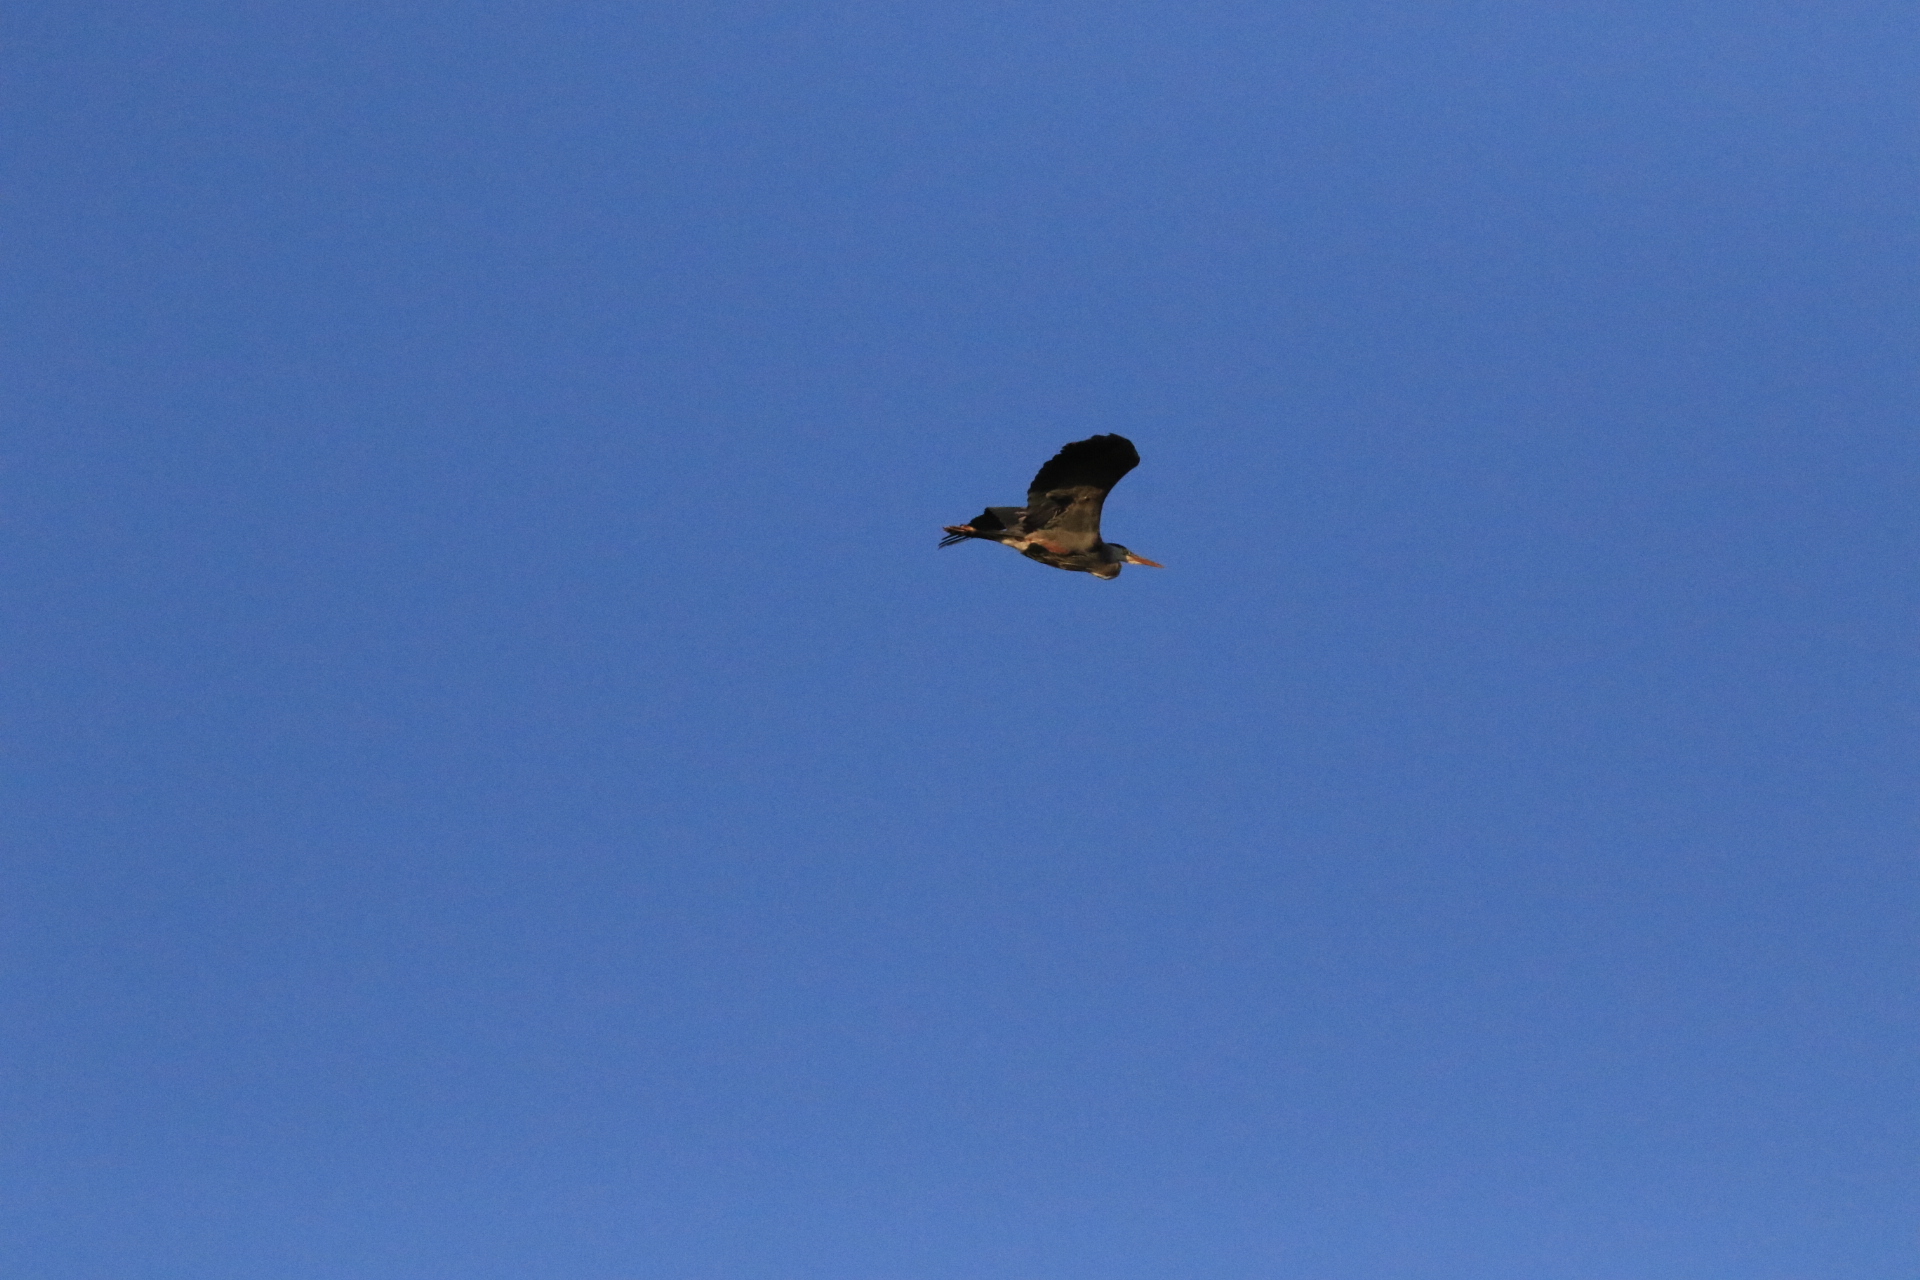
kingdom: Animalia
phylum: Chordata
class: Aves
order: Pelecaniformes
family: Ardeidae
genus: Ardea
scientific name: Ardea herodias
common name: Great blue heron
